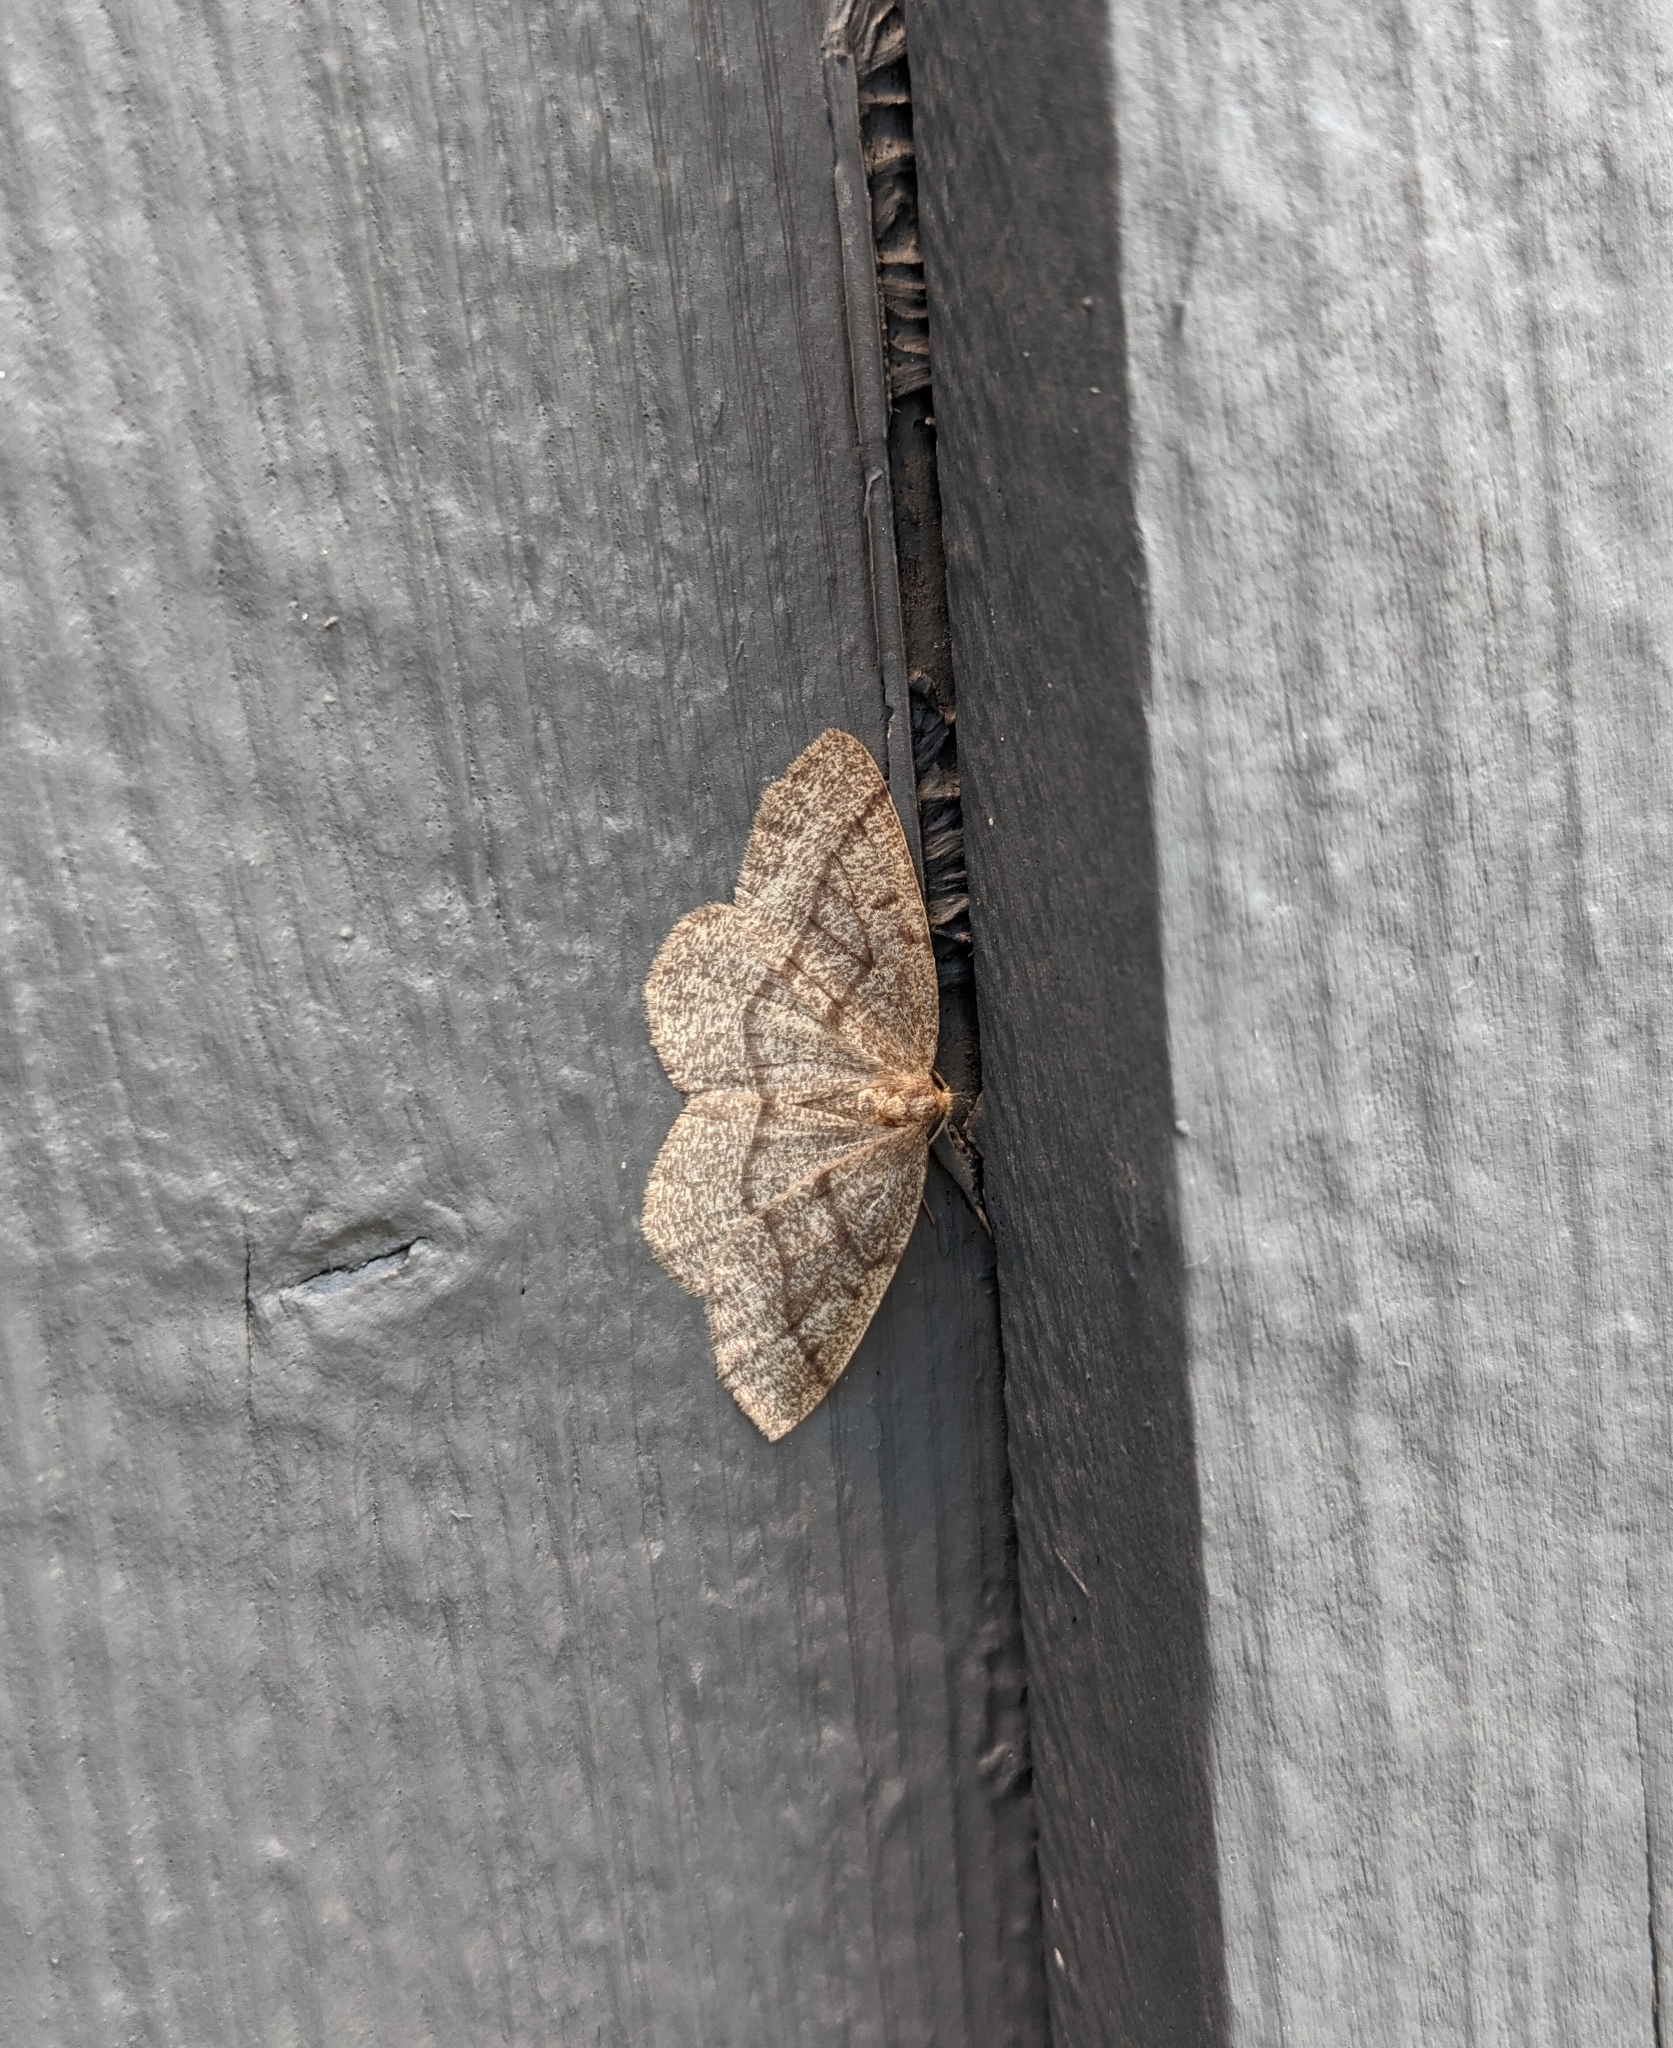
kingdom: Animalia
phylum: Arthropoda
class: Insecta
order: Lepidoptera
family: Geometridae
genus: Lambdina
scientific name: Lambdina fervidaria
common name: Curve-lined looper moth
